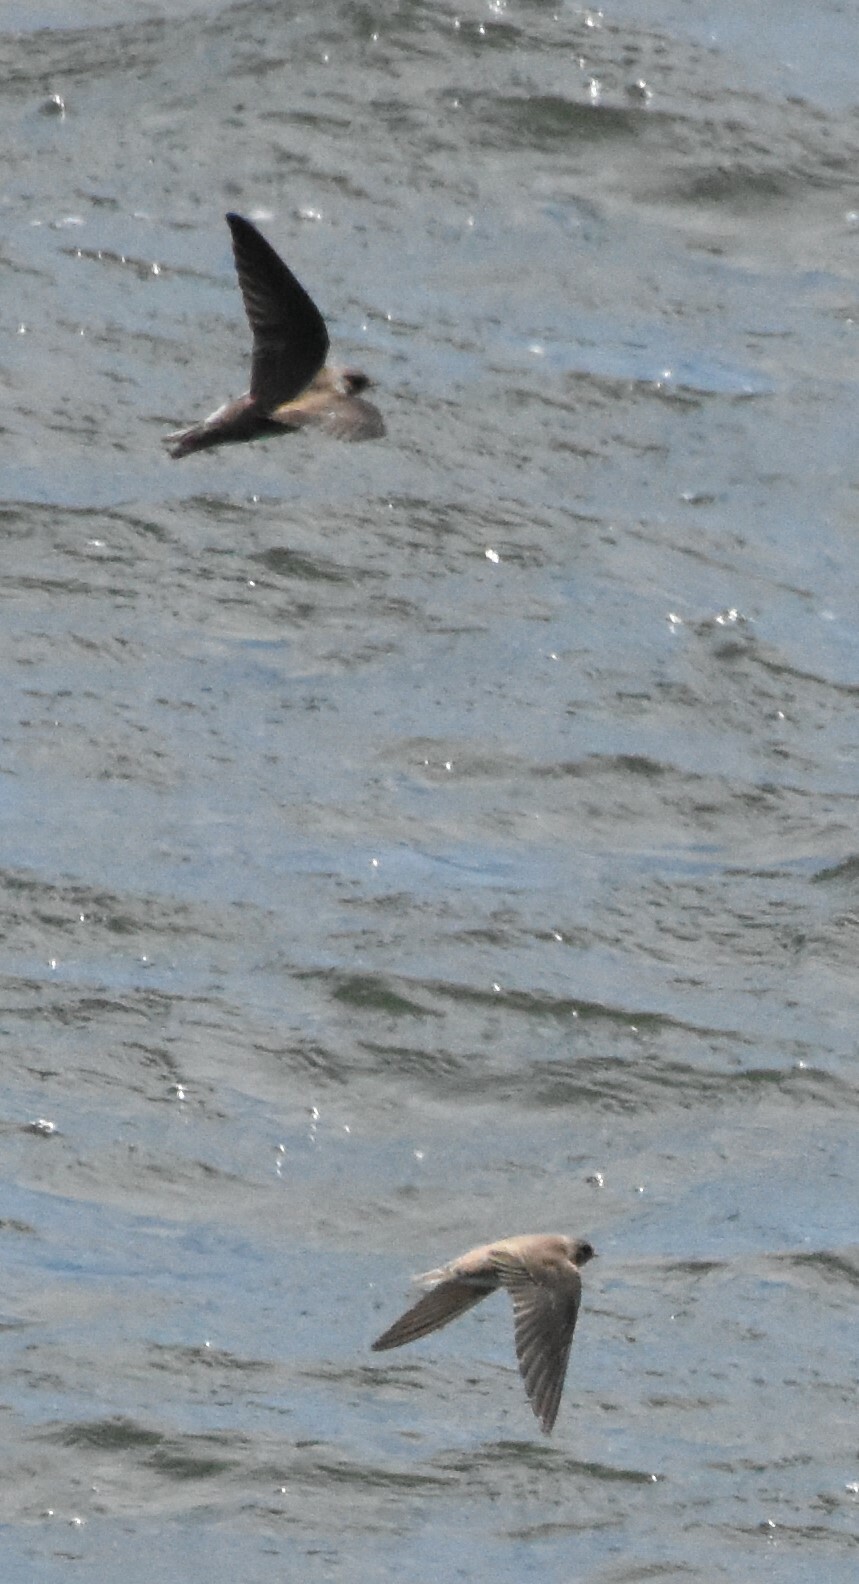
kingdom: Animalia
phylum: Chordata
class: Aves
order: Passeriformes
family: Hirundinidae
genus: Riparia
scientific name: Riparia riparia
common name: Sand martin
